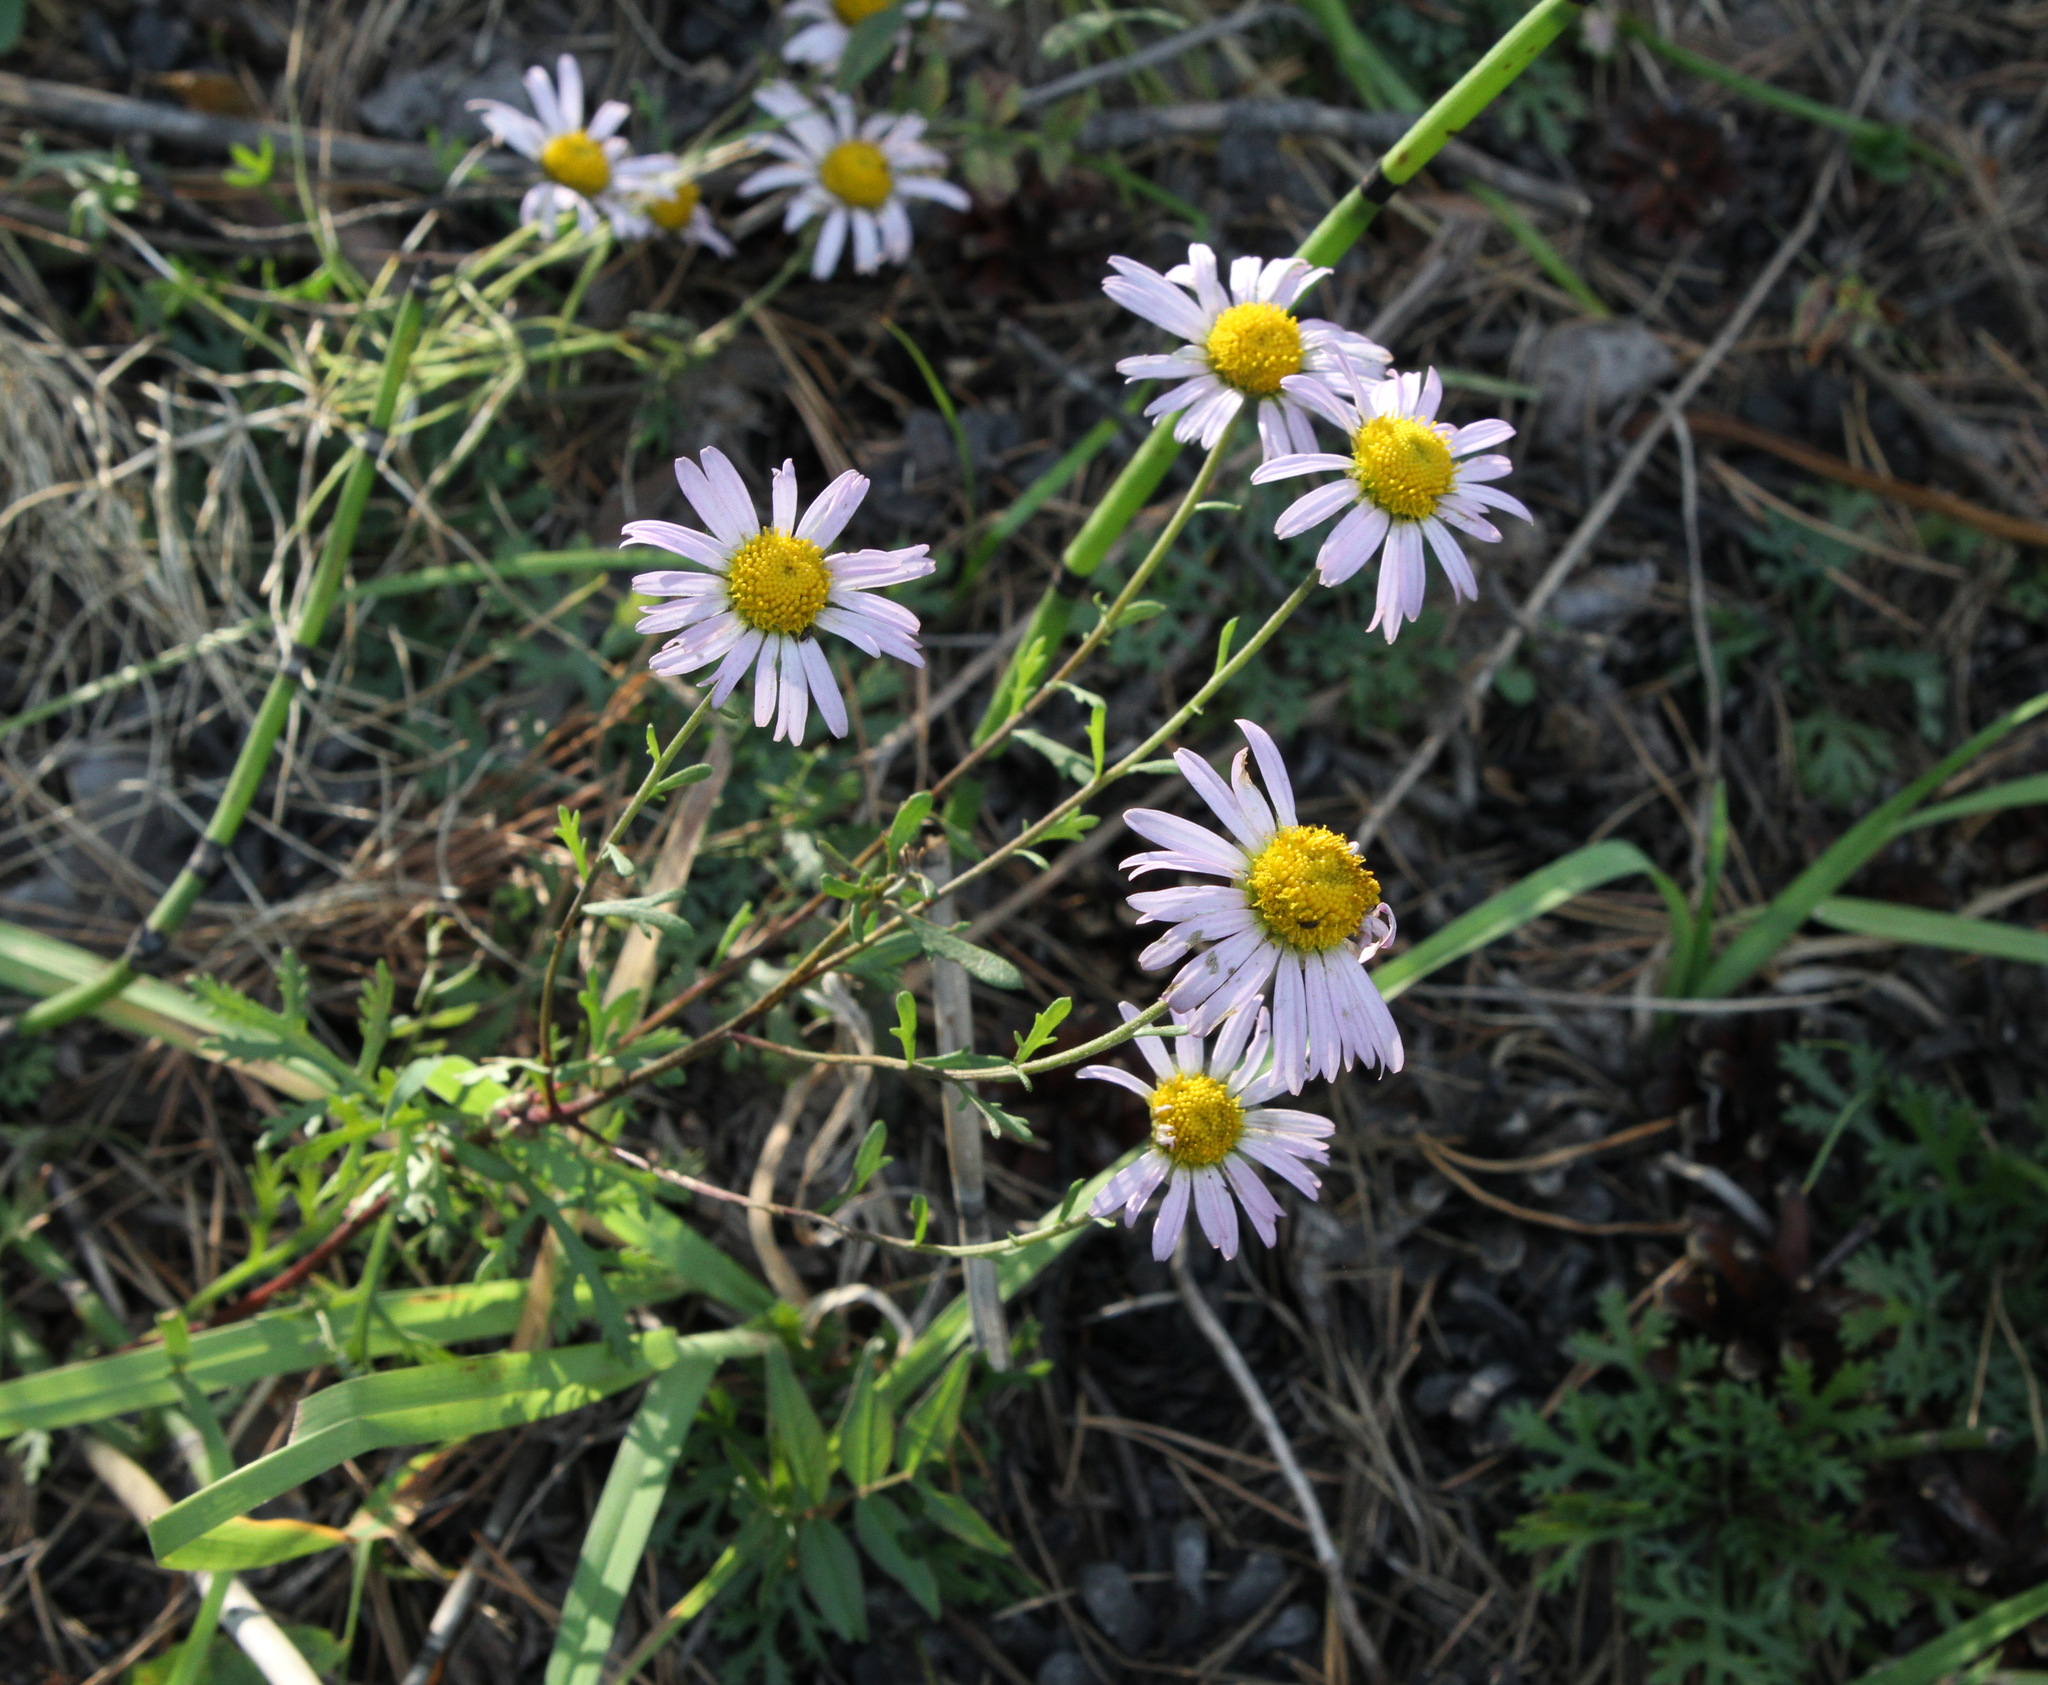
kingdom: Plantae
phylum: Tracheophyta
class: Magnoliopsida
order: Asterales
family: Asteraceae
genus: Chrysanthemum
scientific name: Chrysanthemum zawadzkii
